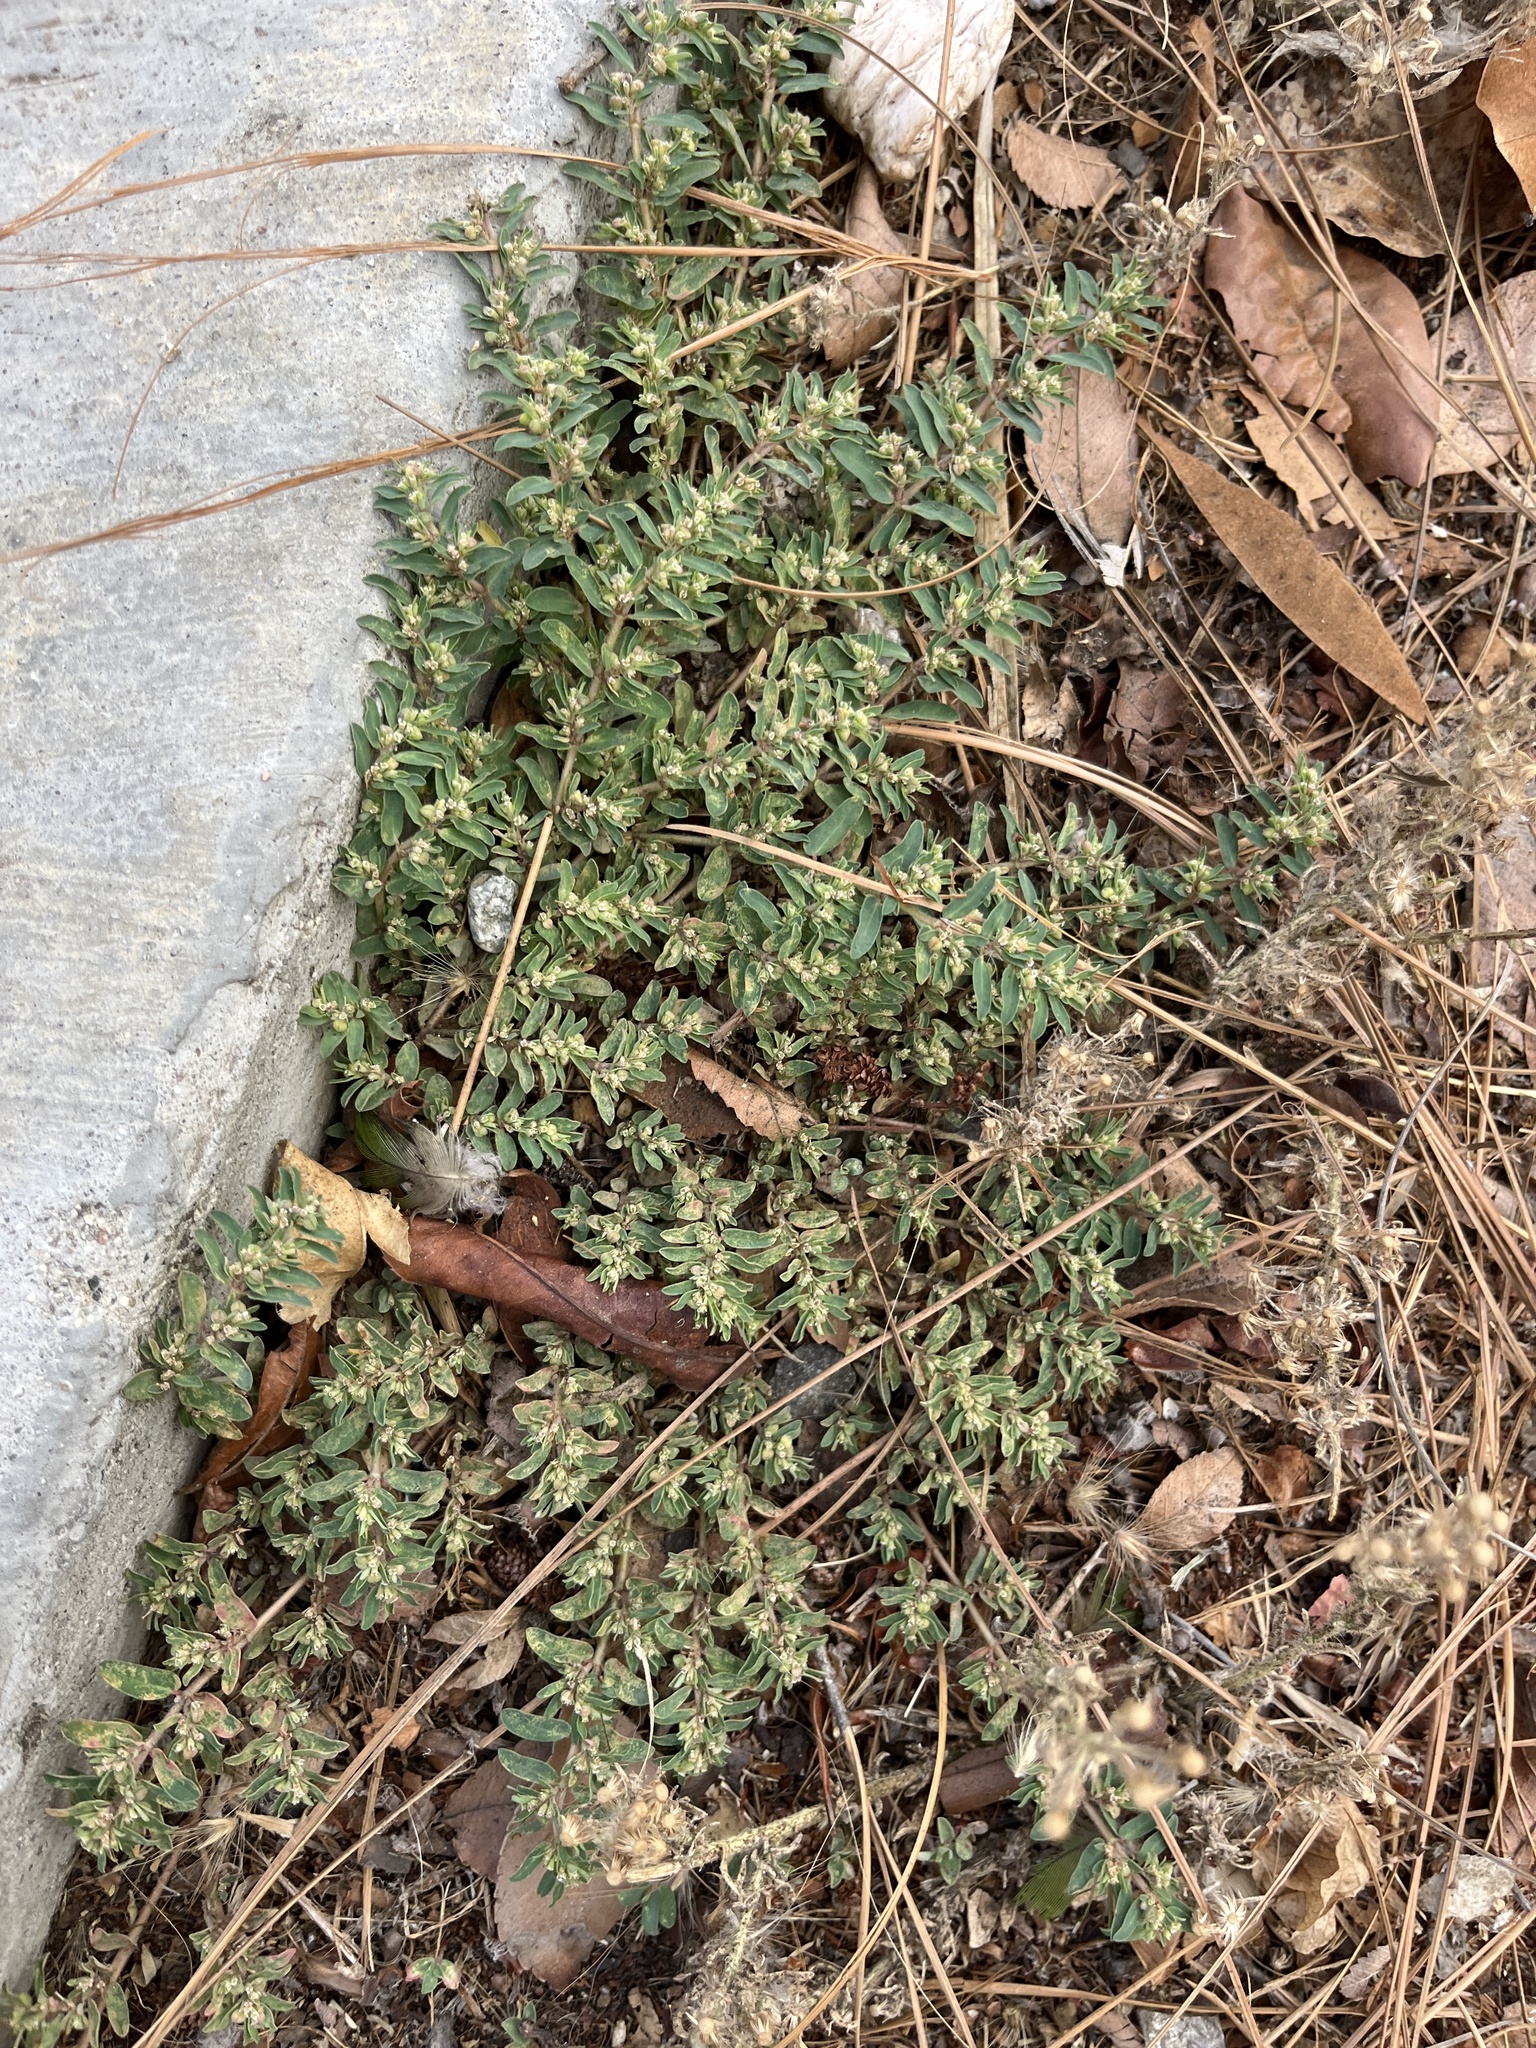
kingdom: Plantae
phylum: Tracheophyta
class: Magnoliopsida
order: Malpighiales
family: Euphorbiaceae
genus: Euphorbia
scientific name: Euphorbia maculata
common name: Spotted spurge
